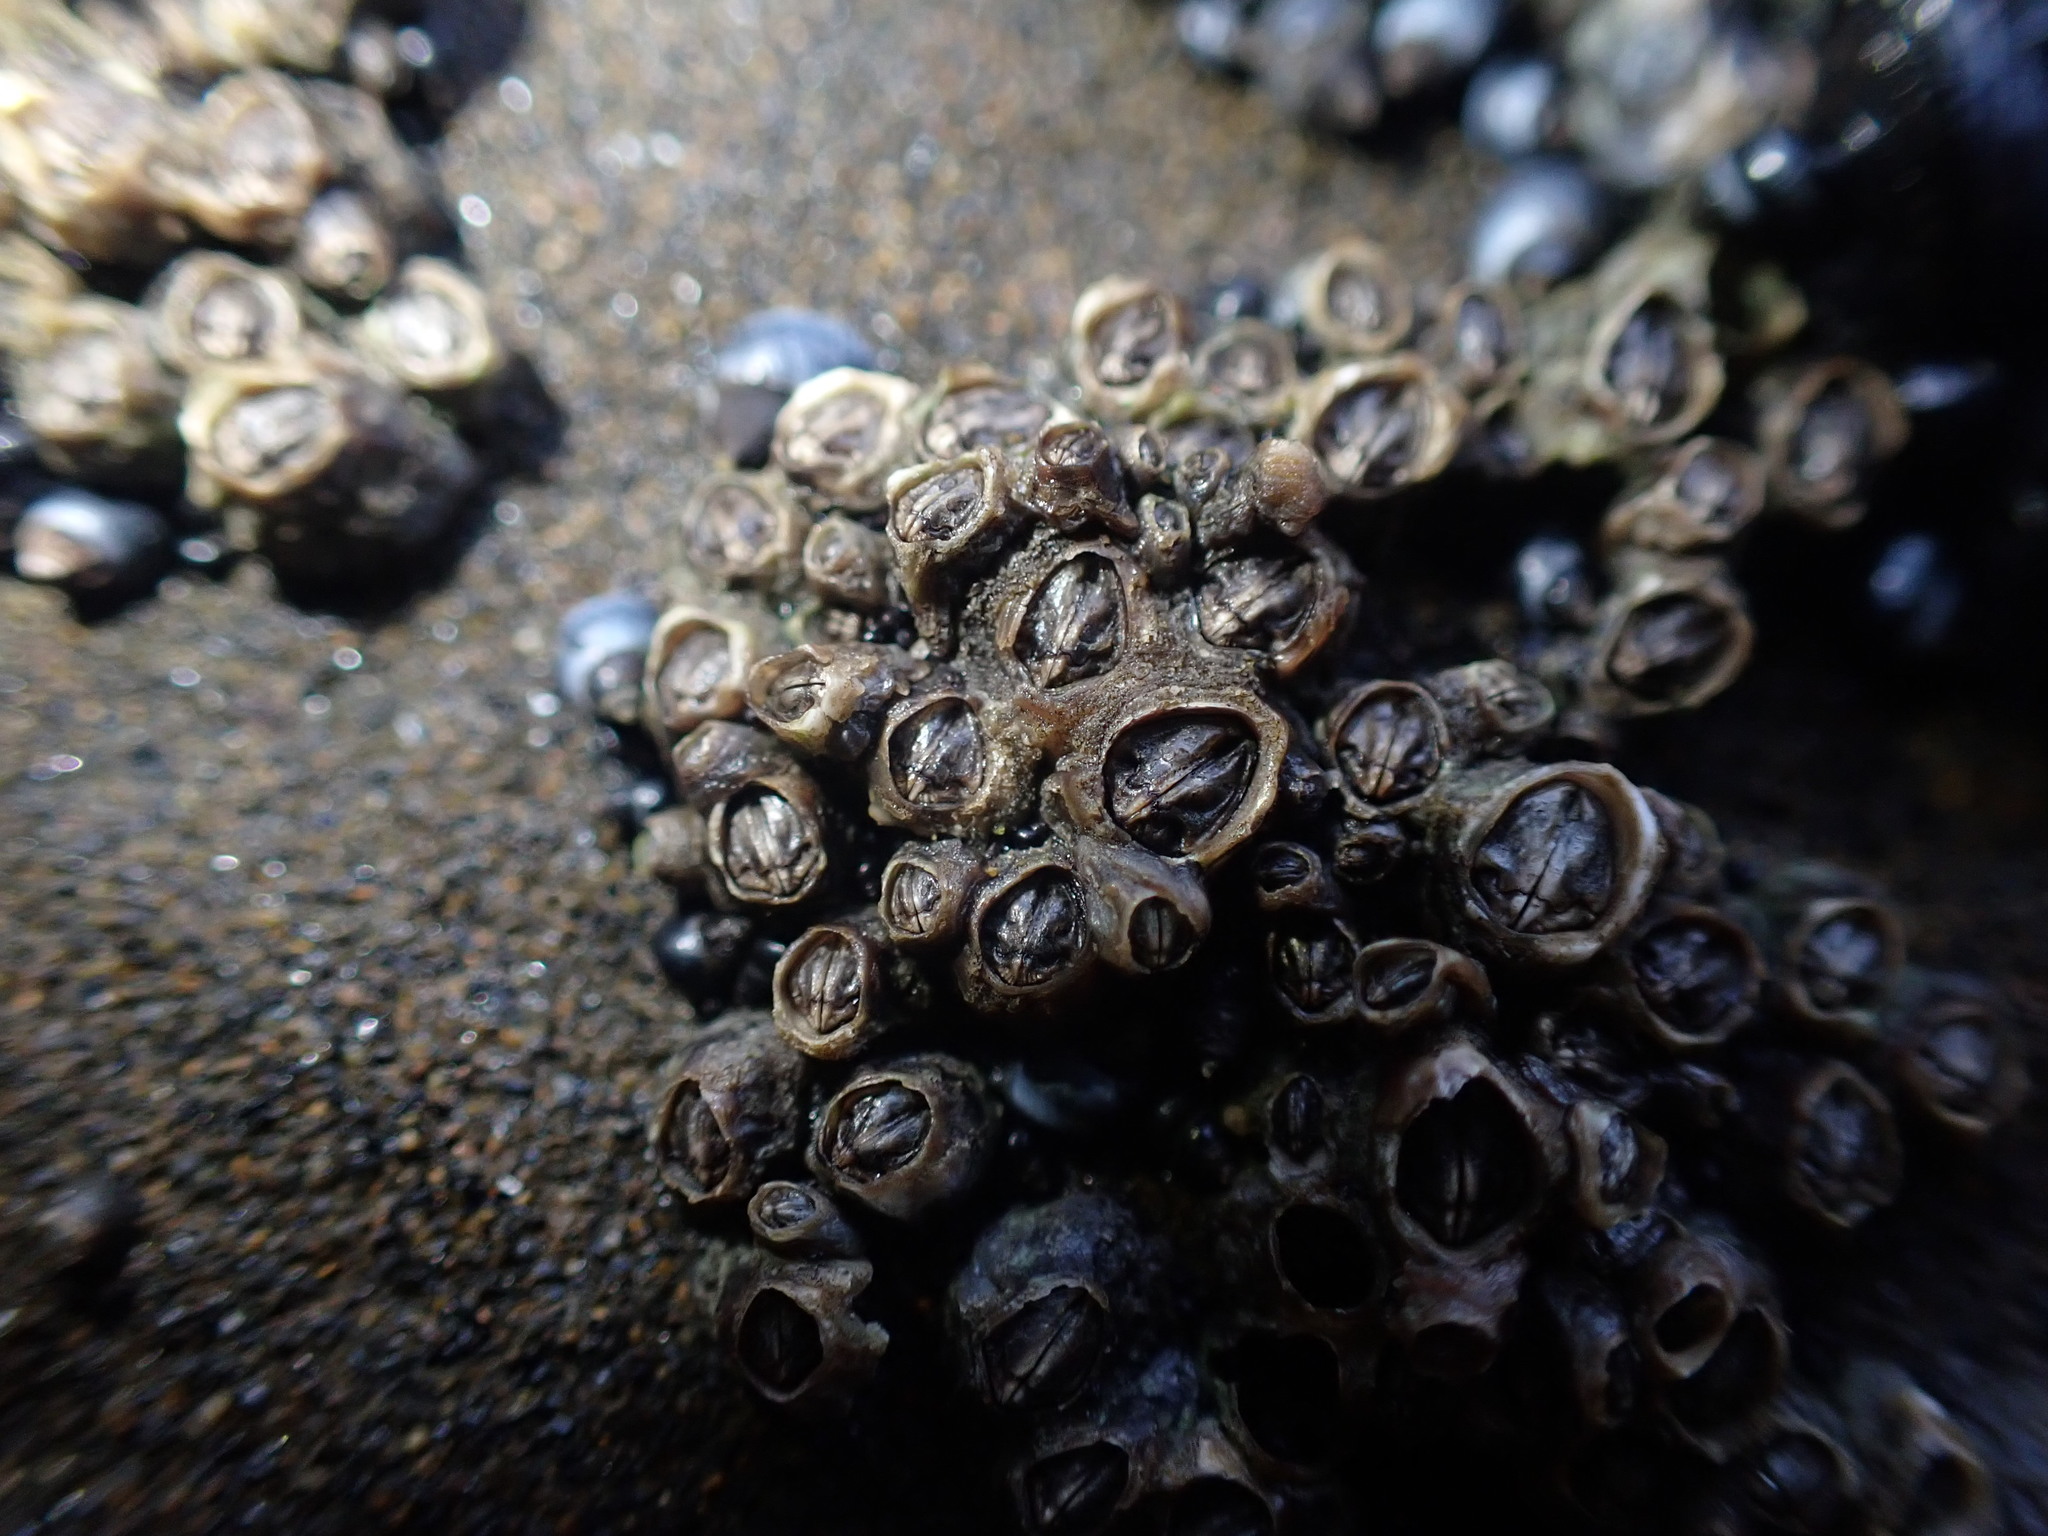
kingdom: Animalia
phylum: Arthropoda
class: Maxillopoda
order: Sessilia
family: Chthamalidae
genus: Chamaesipho
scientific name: Chamaesipho columna
